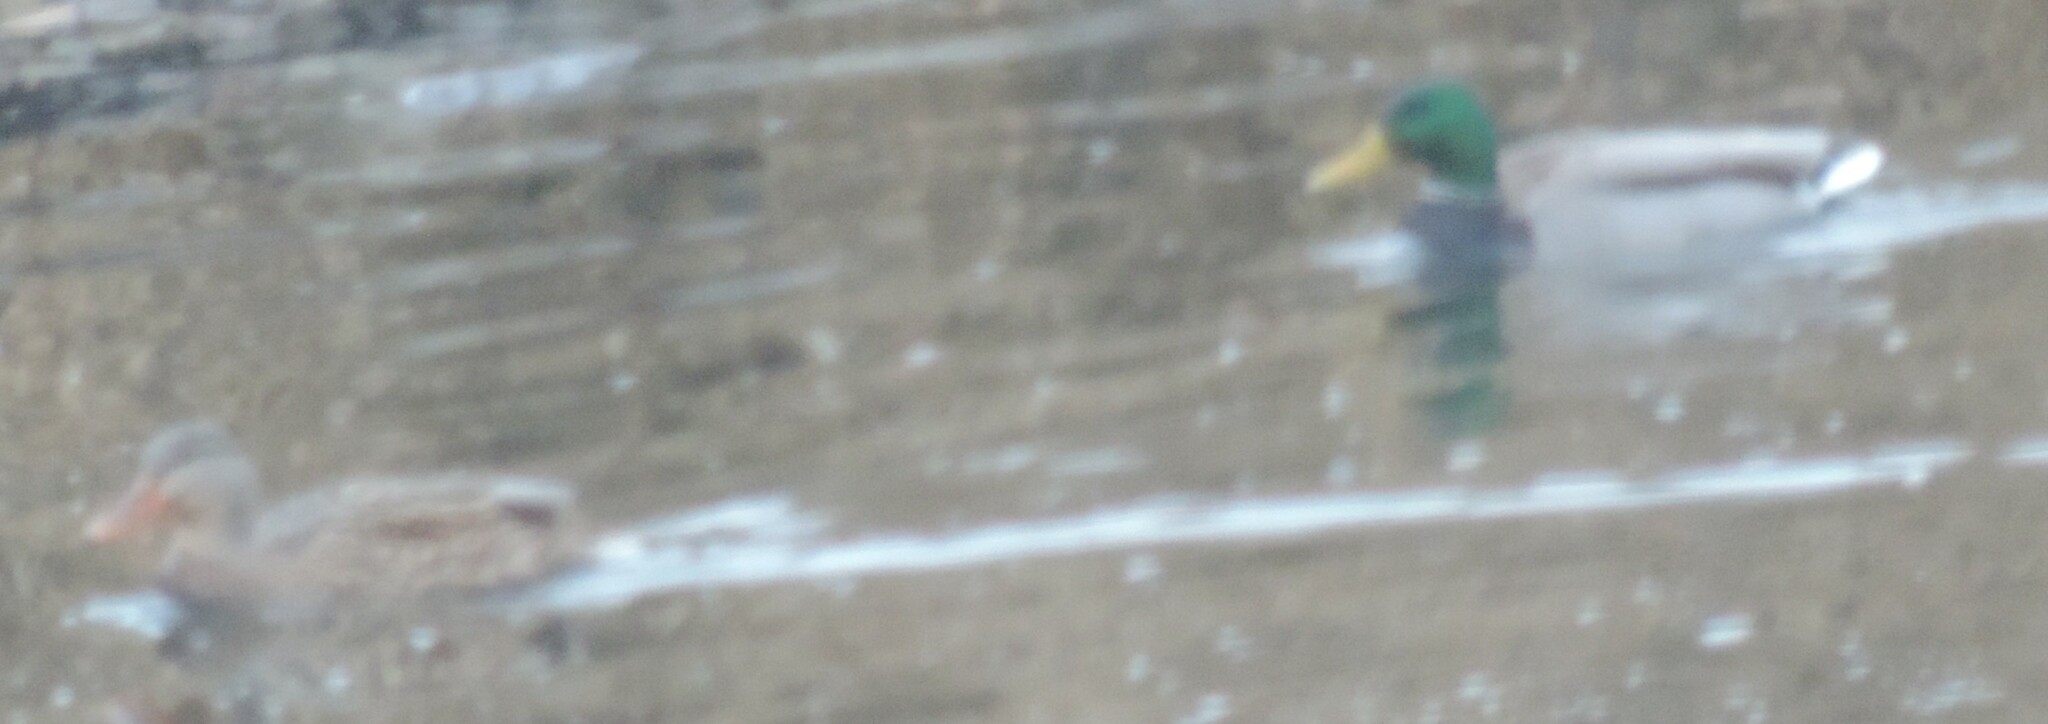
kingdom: Animalia
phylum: Chordata
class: Aves
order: Anseriformes
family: Anatidae
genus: Anas
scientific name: Anas platyrhynchos
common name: Mallard
